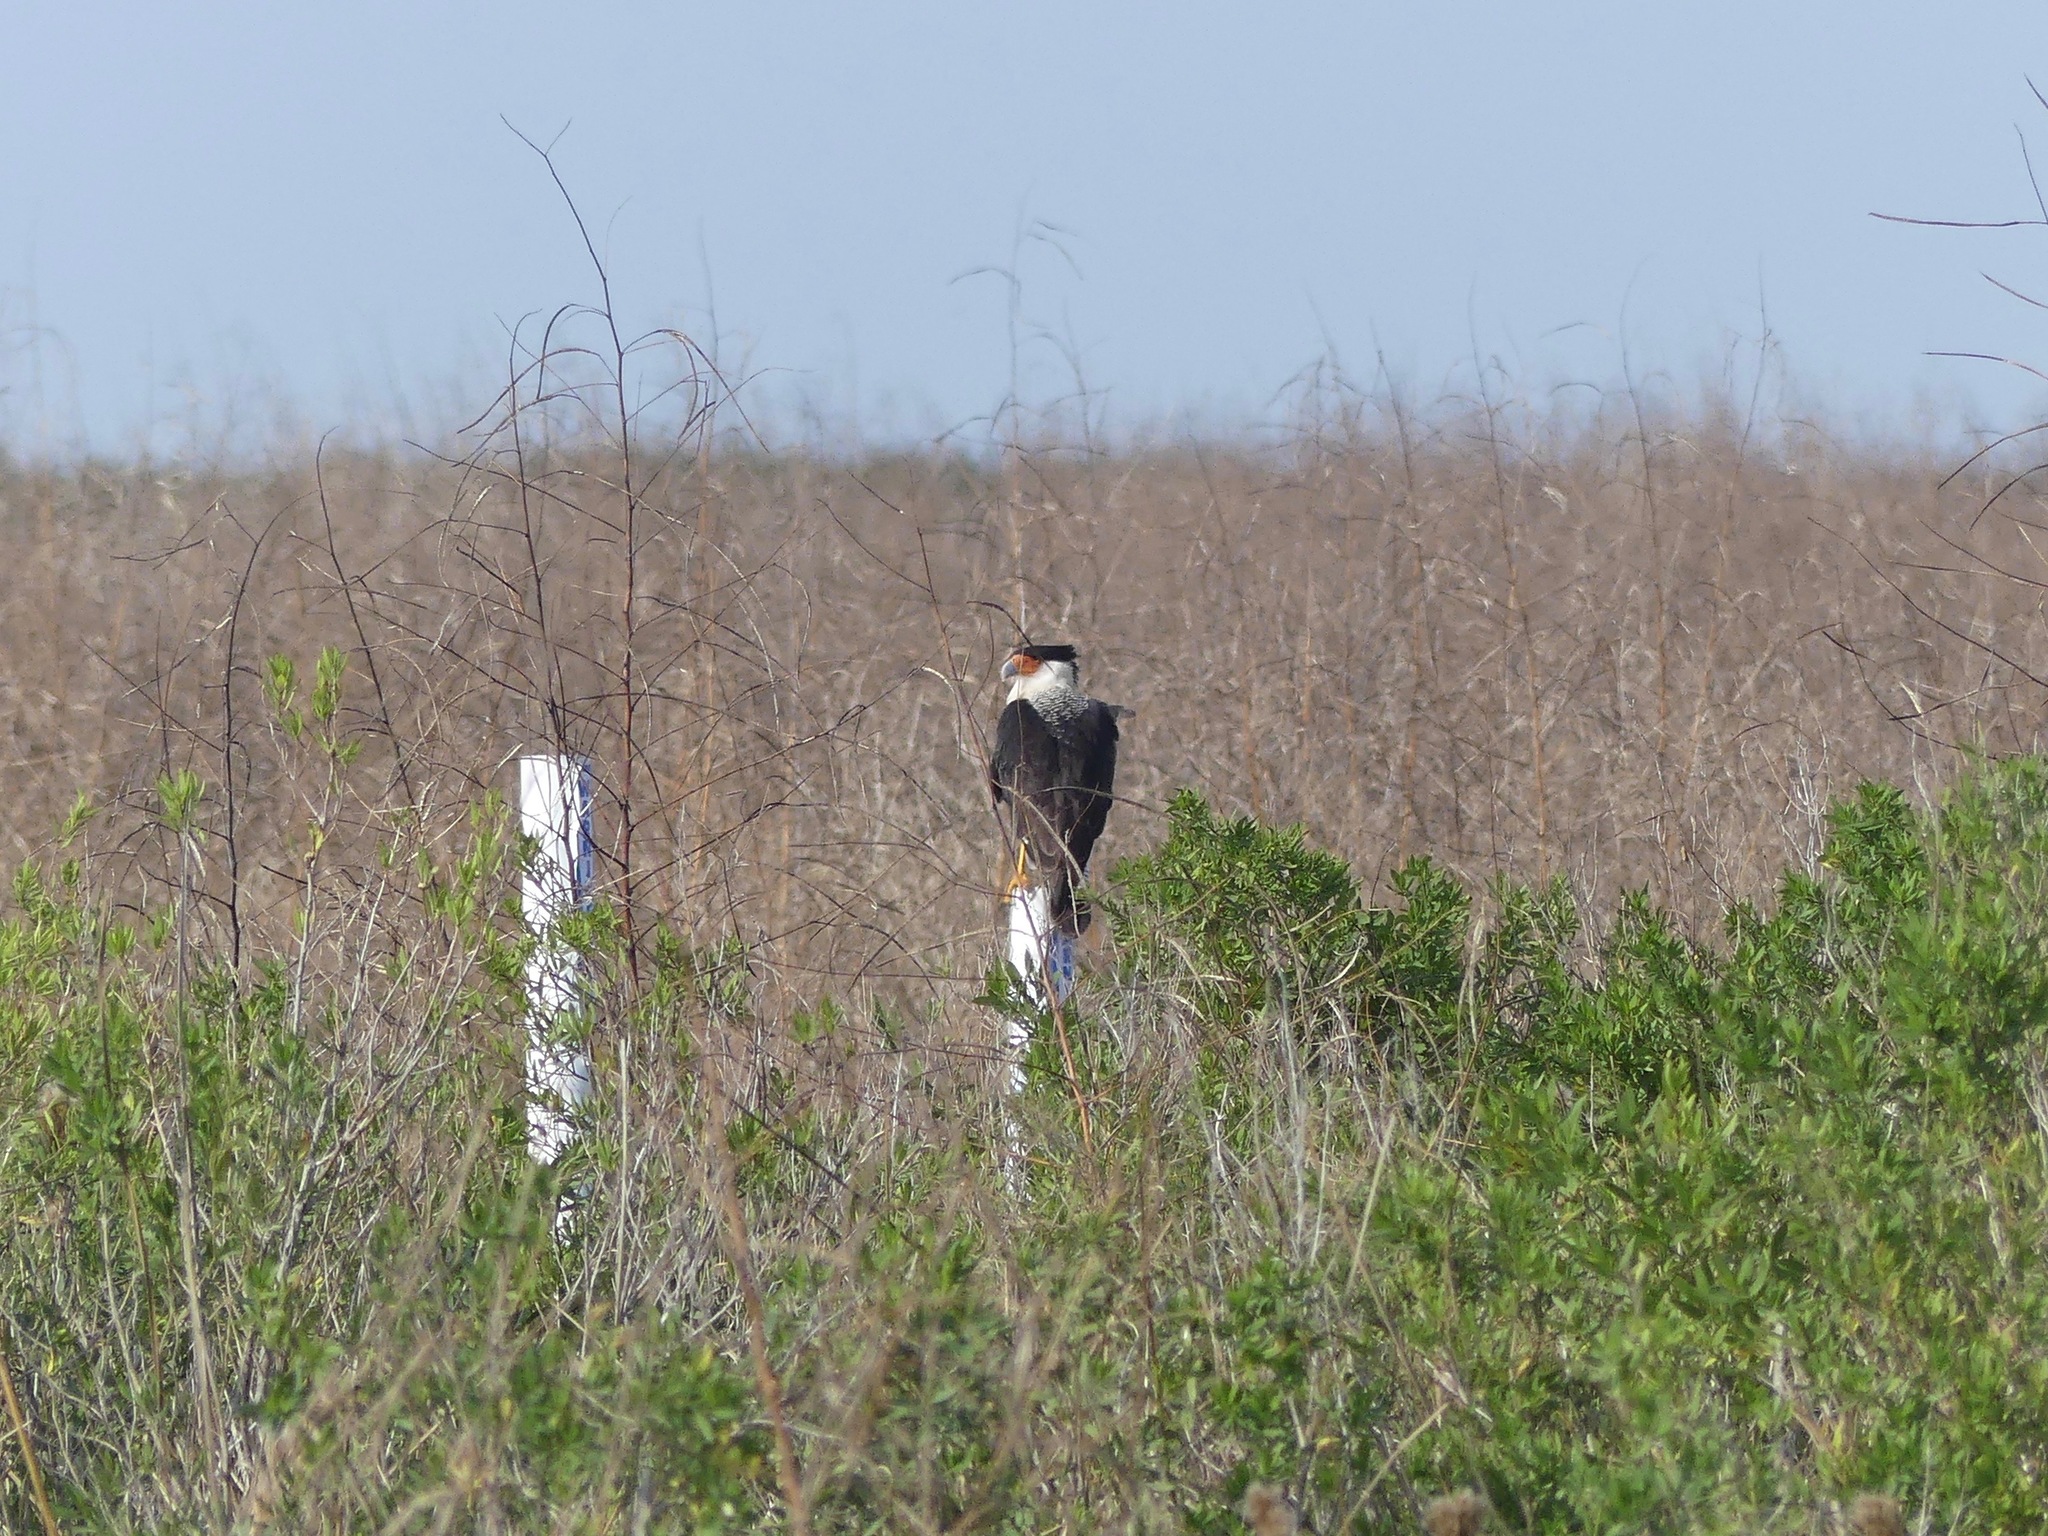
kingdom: Animalia
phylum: Chordata
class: Aves
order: Falconiformes
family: Falconidae
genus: Caracara
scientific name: Caracara plancus
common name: Southern caracara
